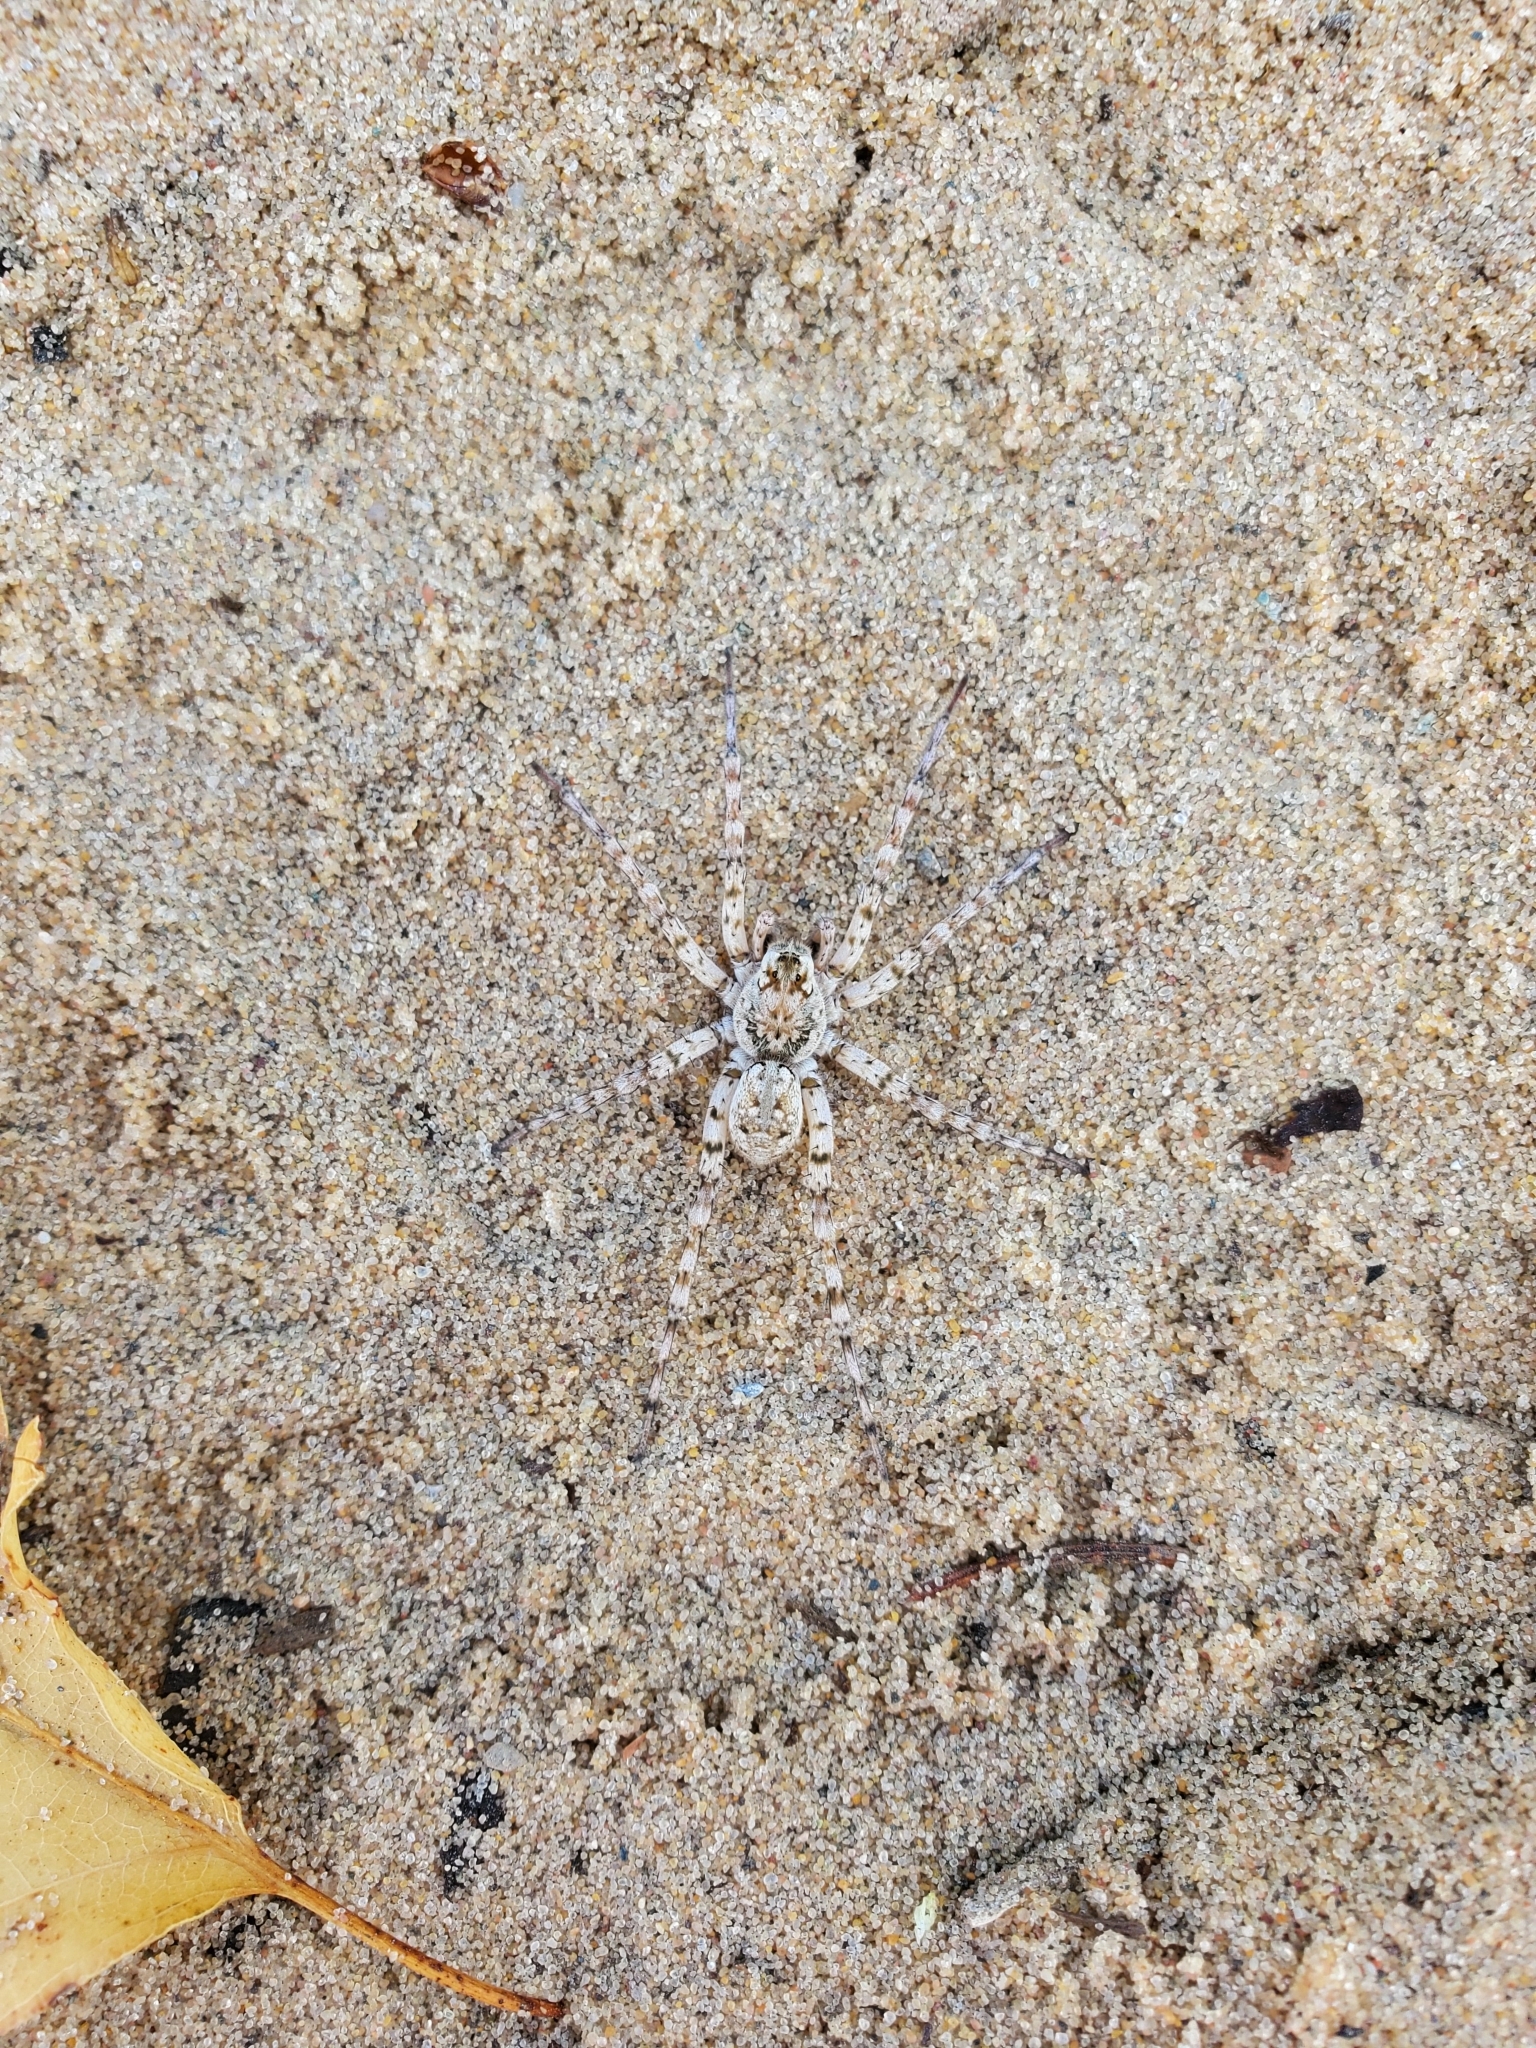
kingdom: Animalia
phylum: Arthropoda
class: Arachnida
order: Araneae
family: Lycosidae
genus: Arctosa
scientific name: Arctosa littoralis
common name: Wolf spiders
